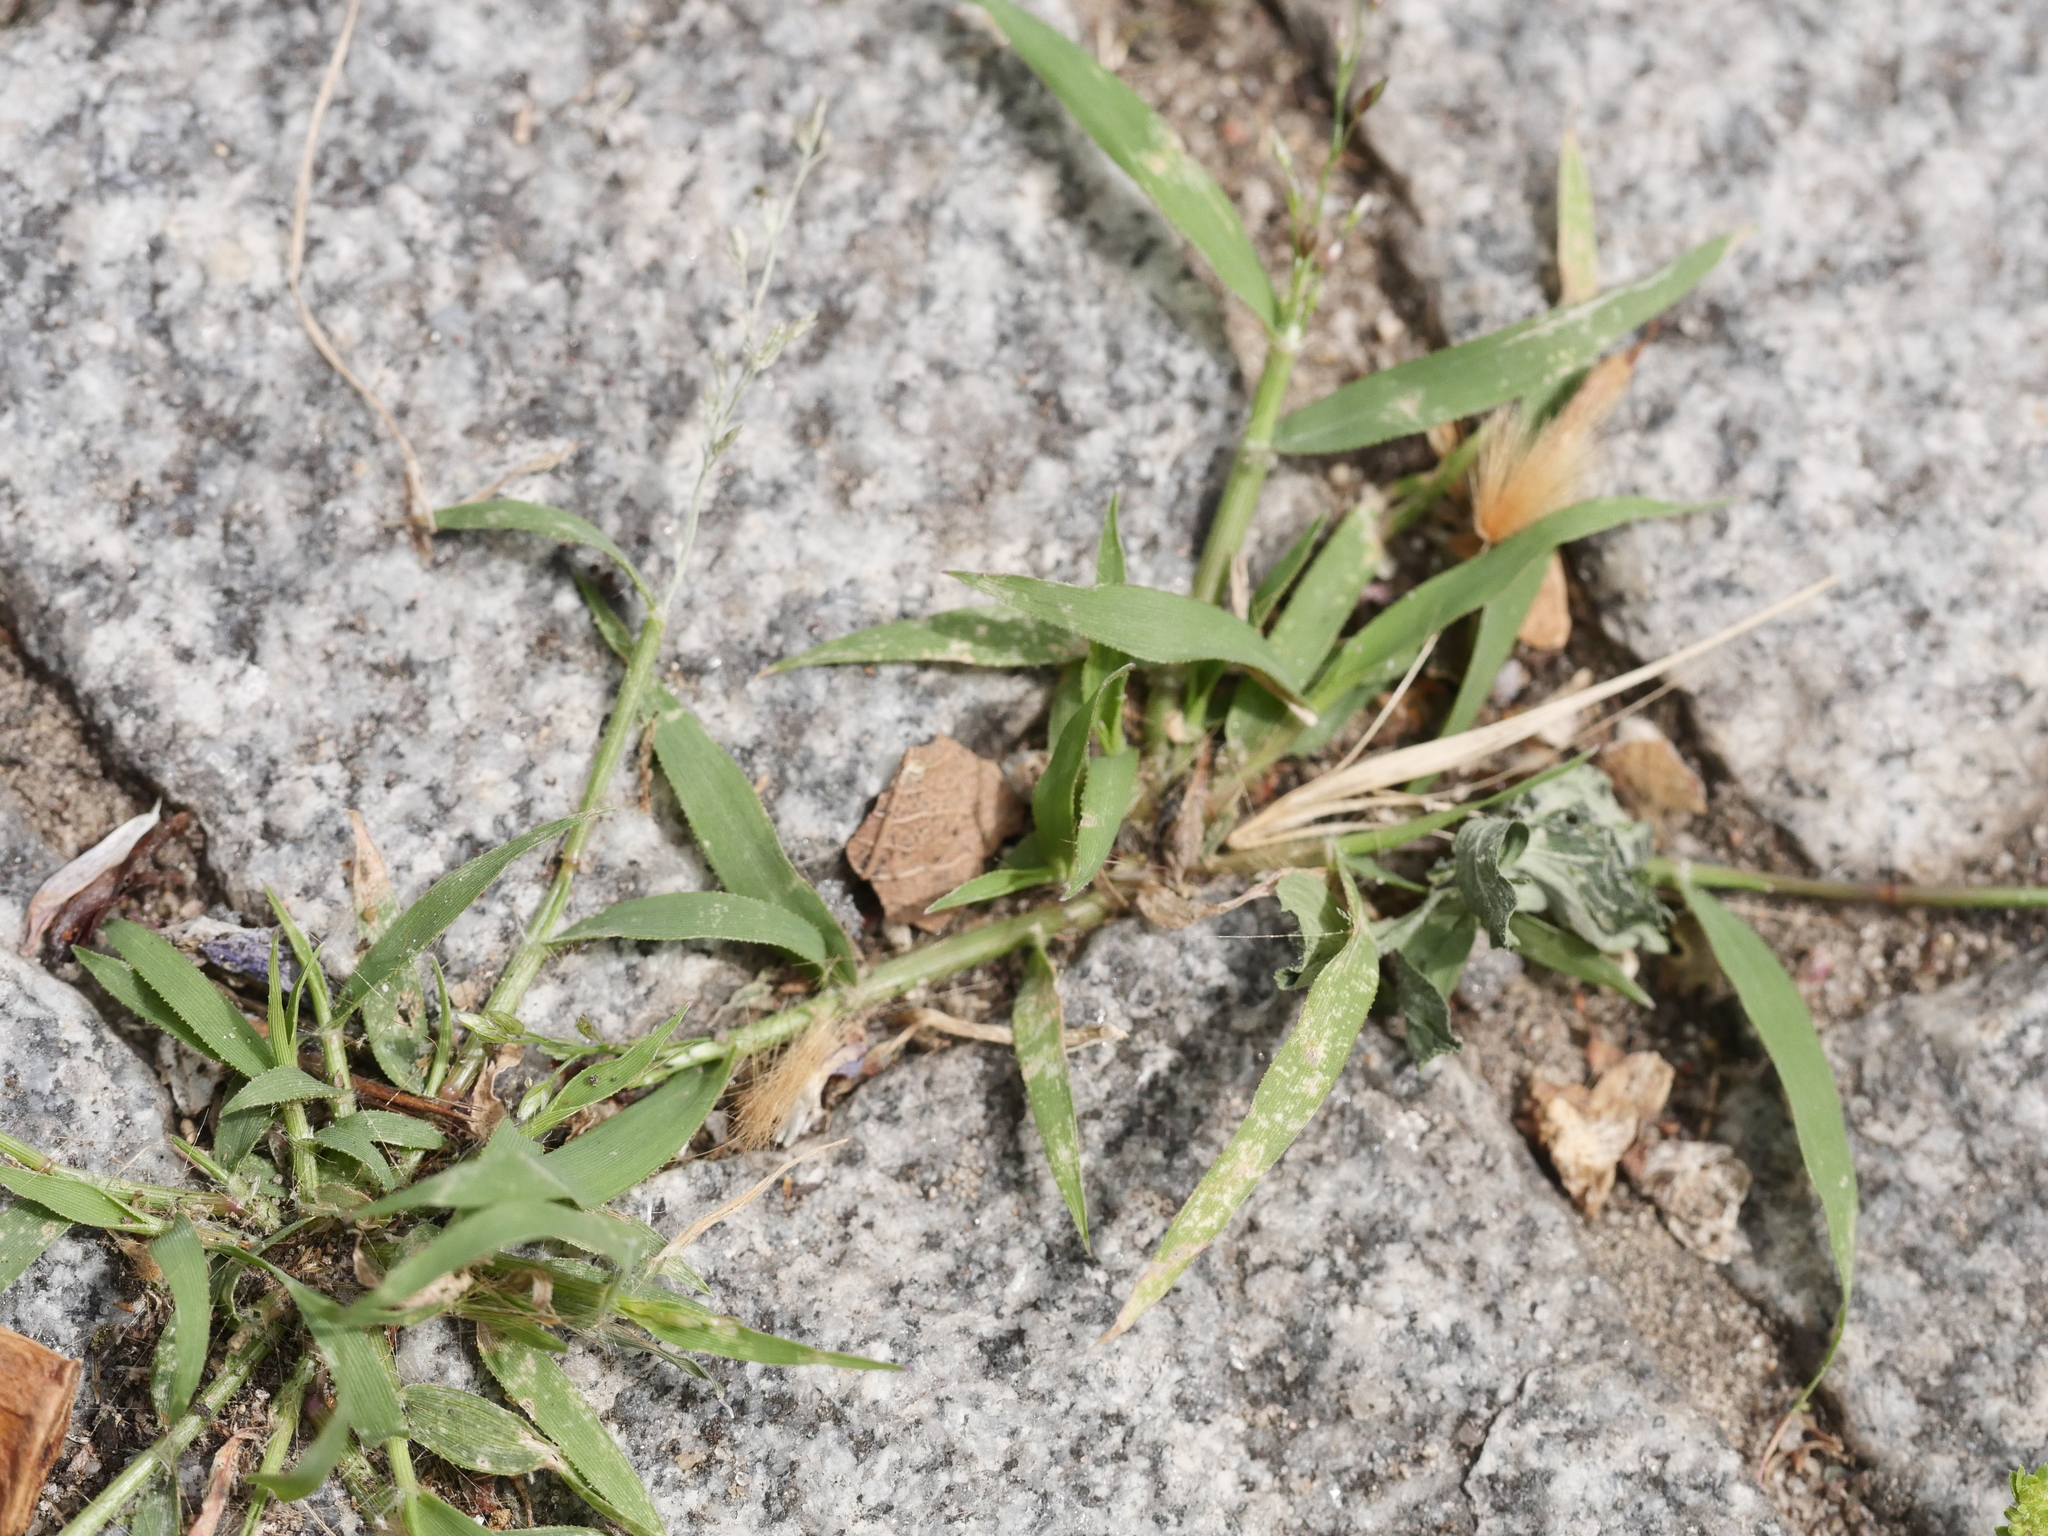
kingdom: Plantae
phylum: Tracheophyta
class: Liliopsida
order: Poales
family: Poaceae
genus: Digitaria
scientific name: Digitaria sanguinalis
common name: Hairy crabgrass
